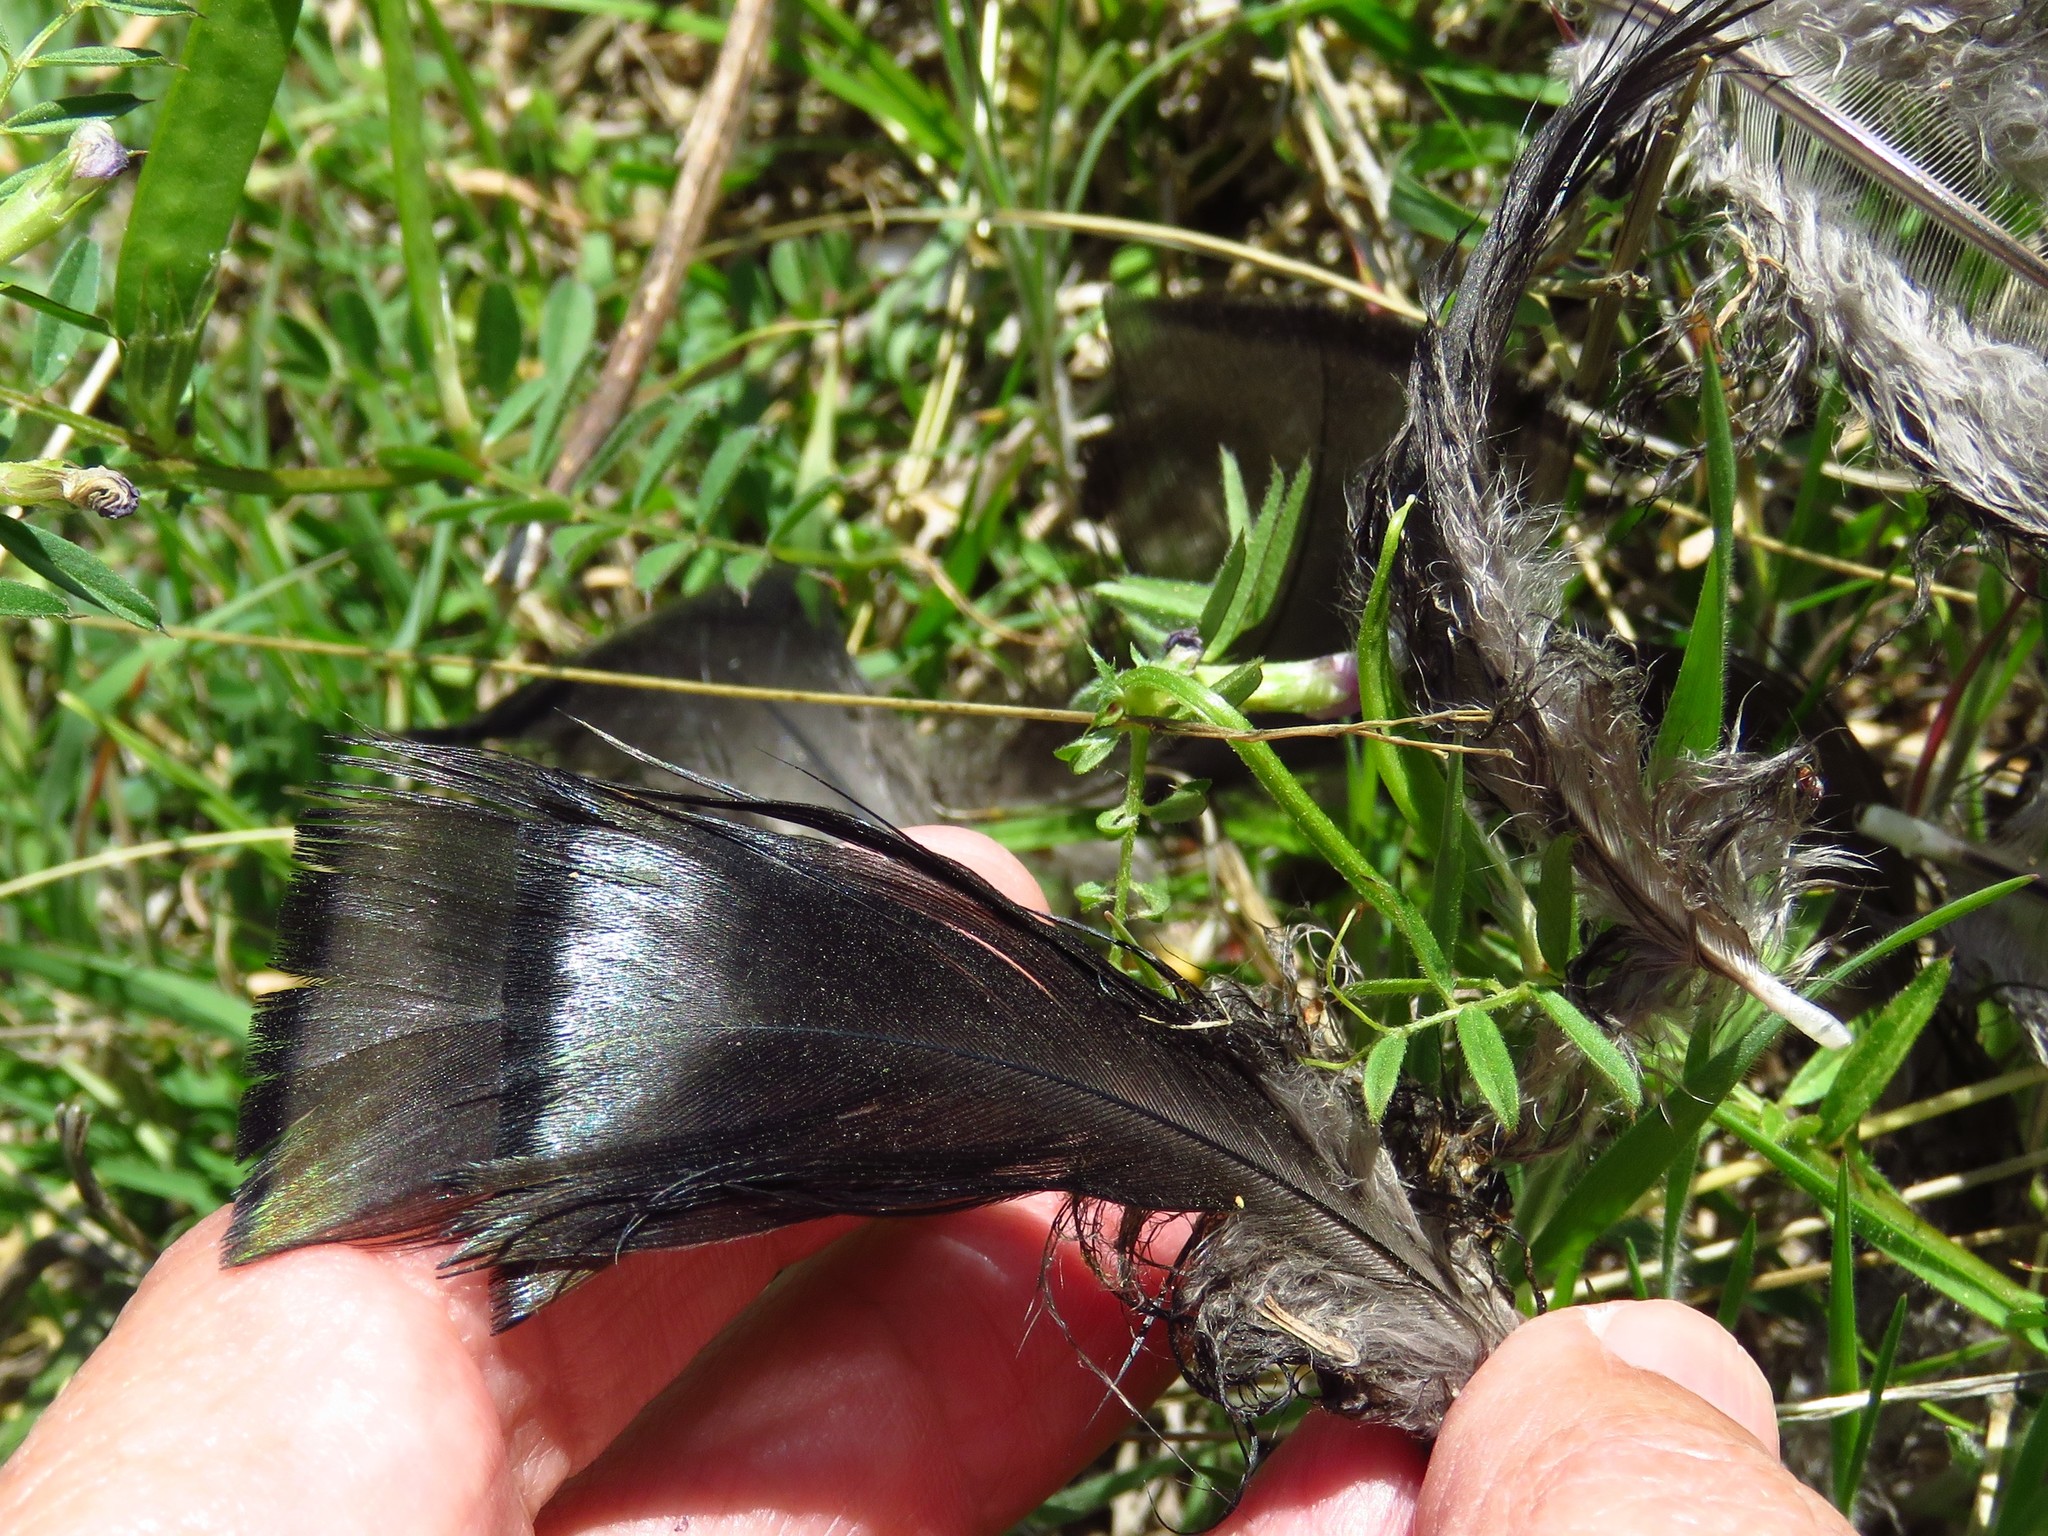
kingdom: Animalia
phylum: Chordata
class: Aves
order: Galliformes
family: Phasianidae
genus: Meleagris
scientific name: Meleagris gallopavo
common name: Wild turkey
